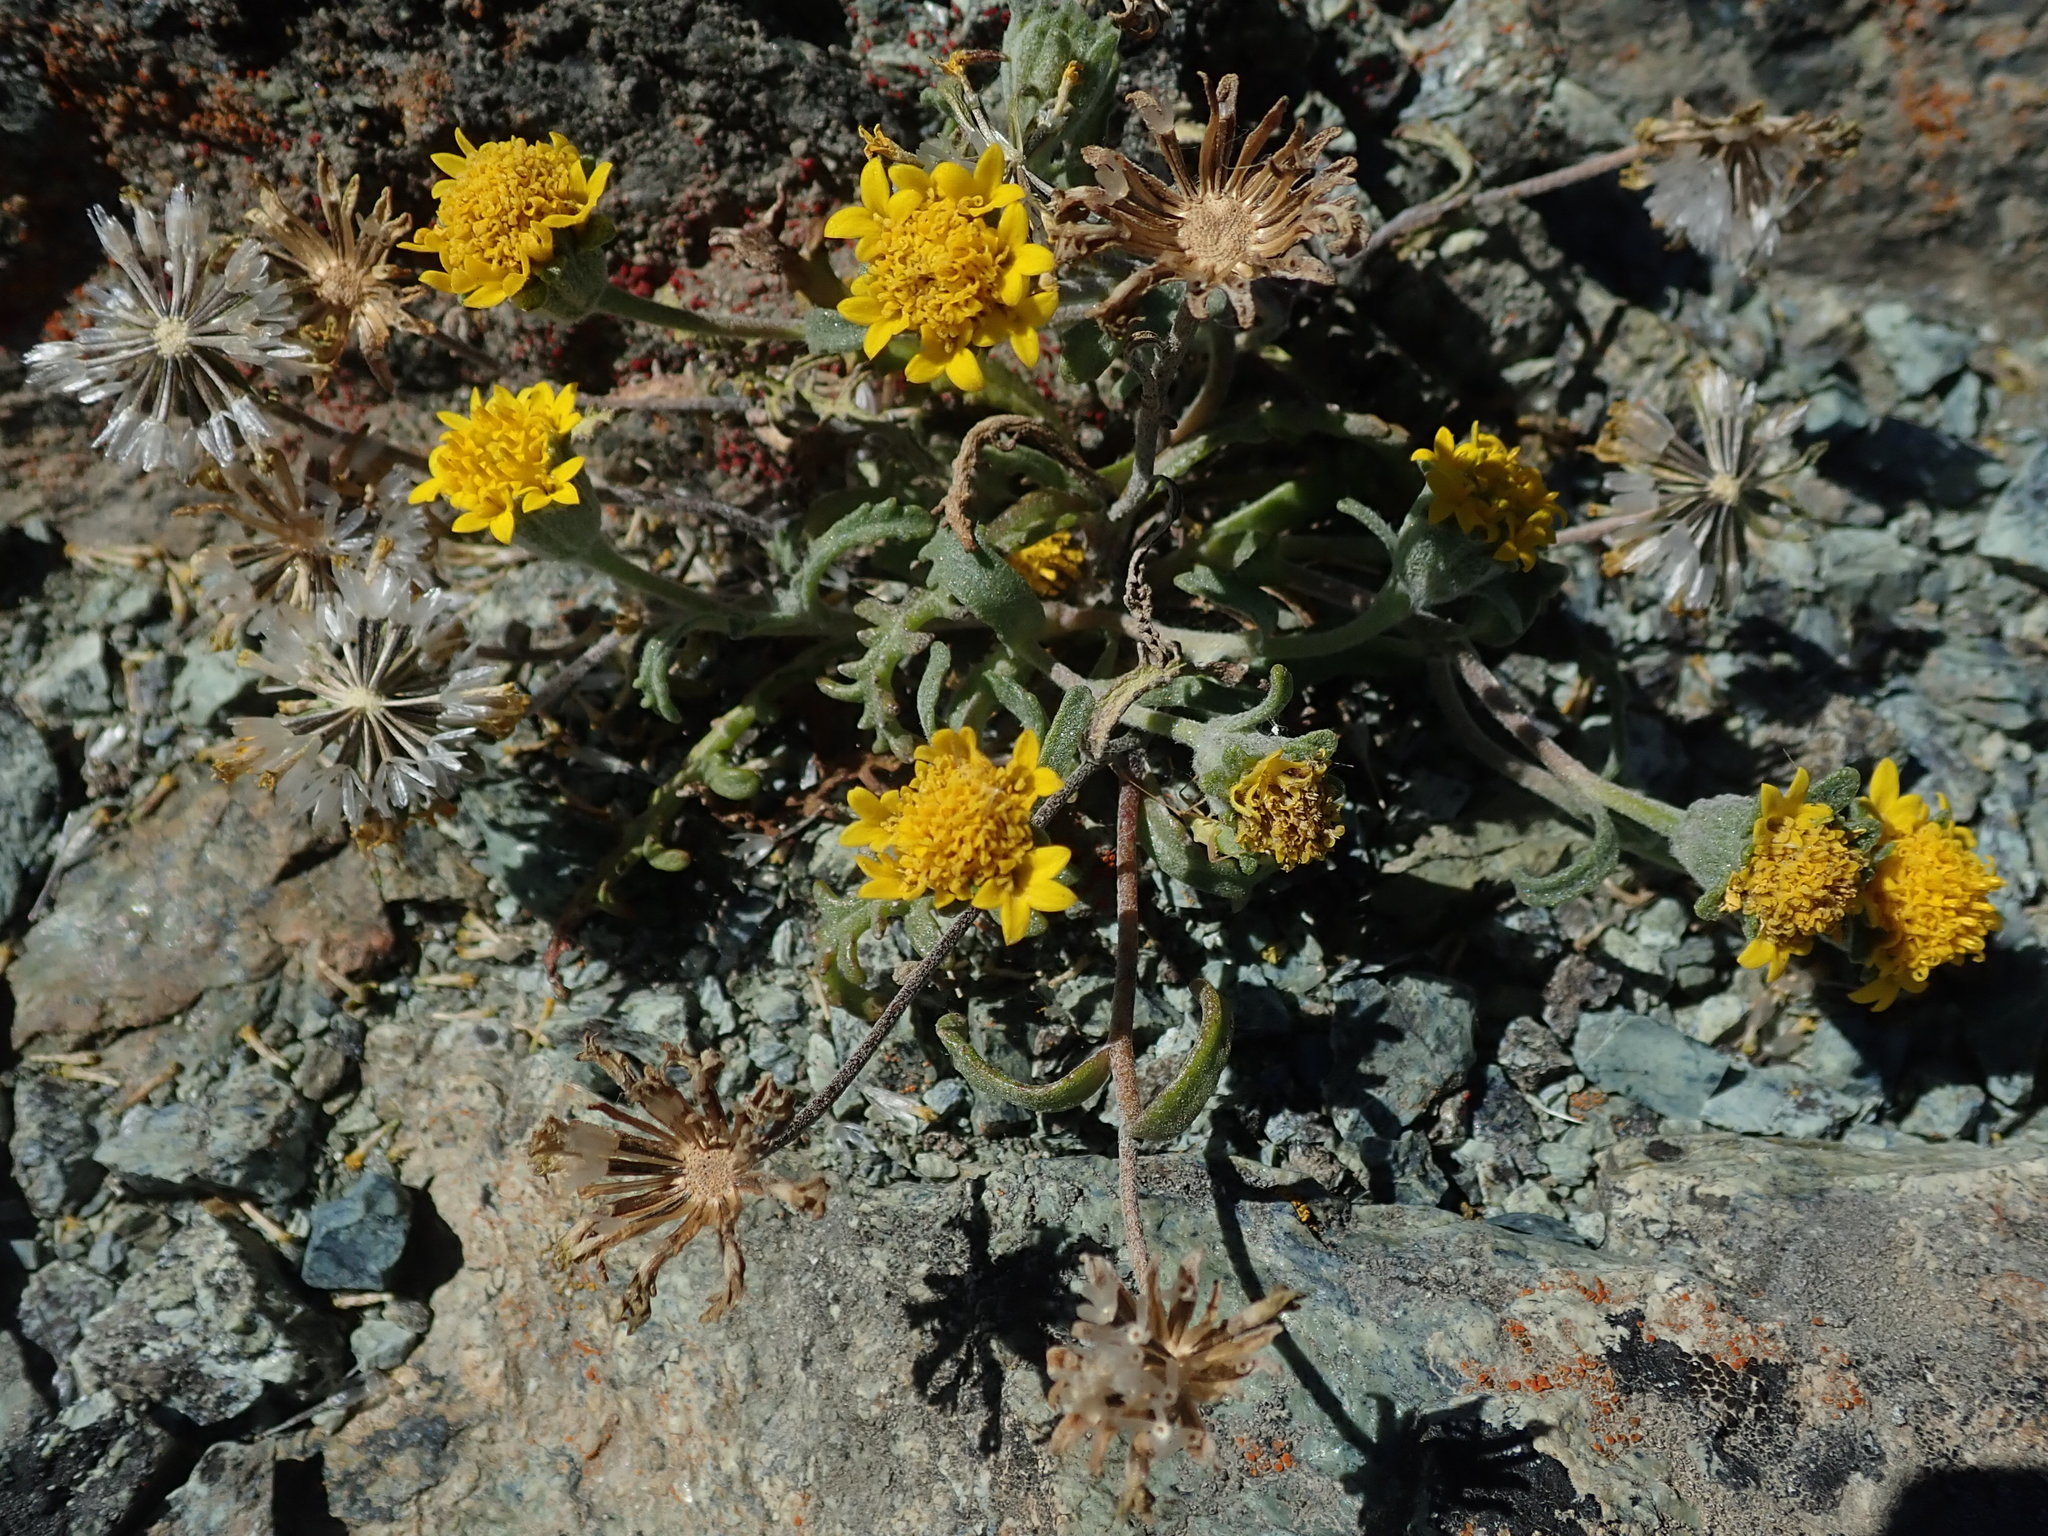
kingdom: Plantae
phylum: Tracheophyta
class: Magnoliopsida
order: Asterales
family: Asteraceae
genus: Chaenactis
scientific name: Chaenactis glabriuscula
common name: Yellow pincushion
